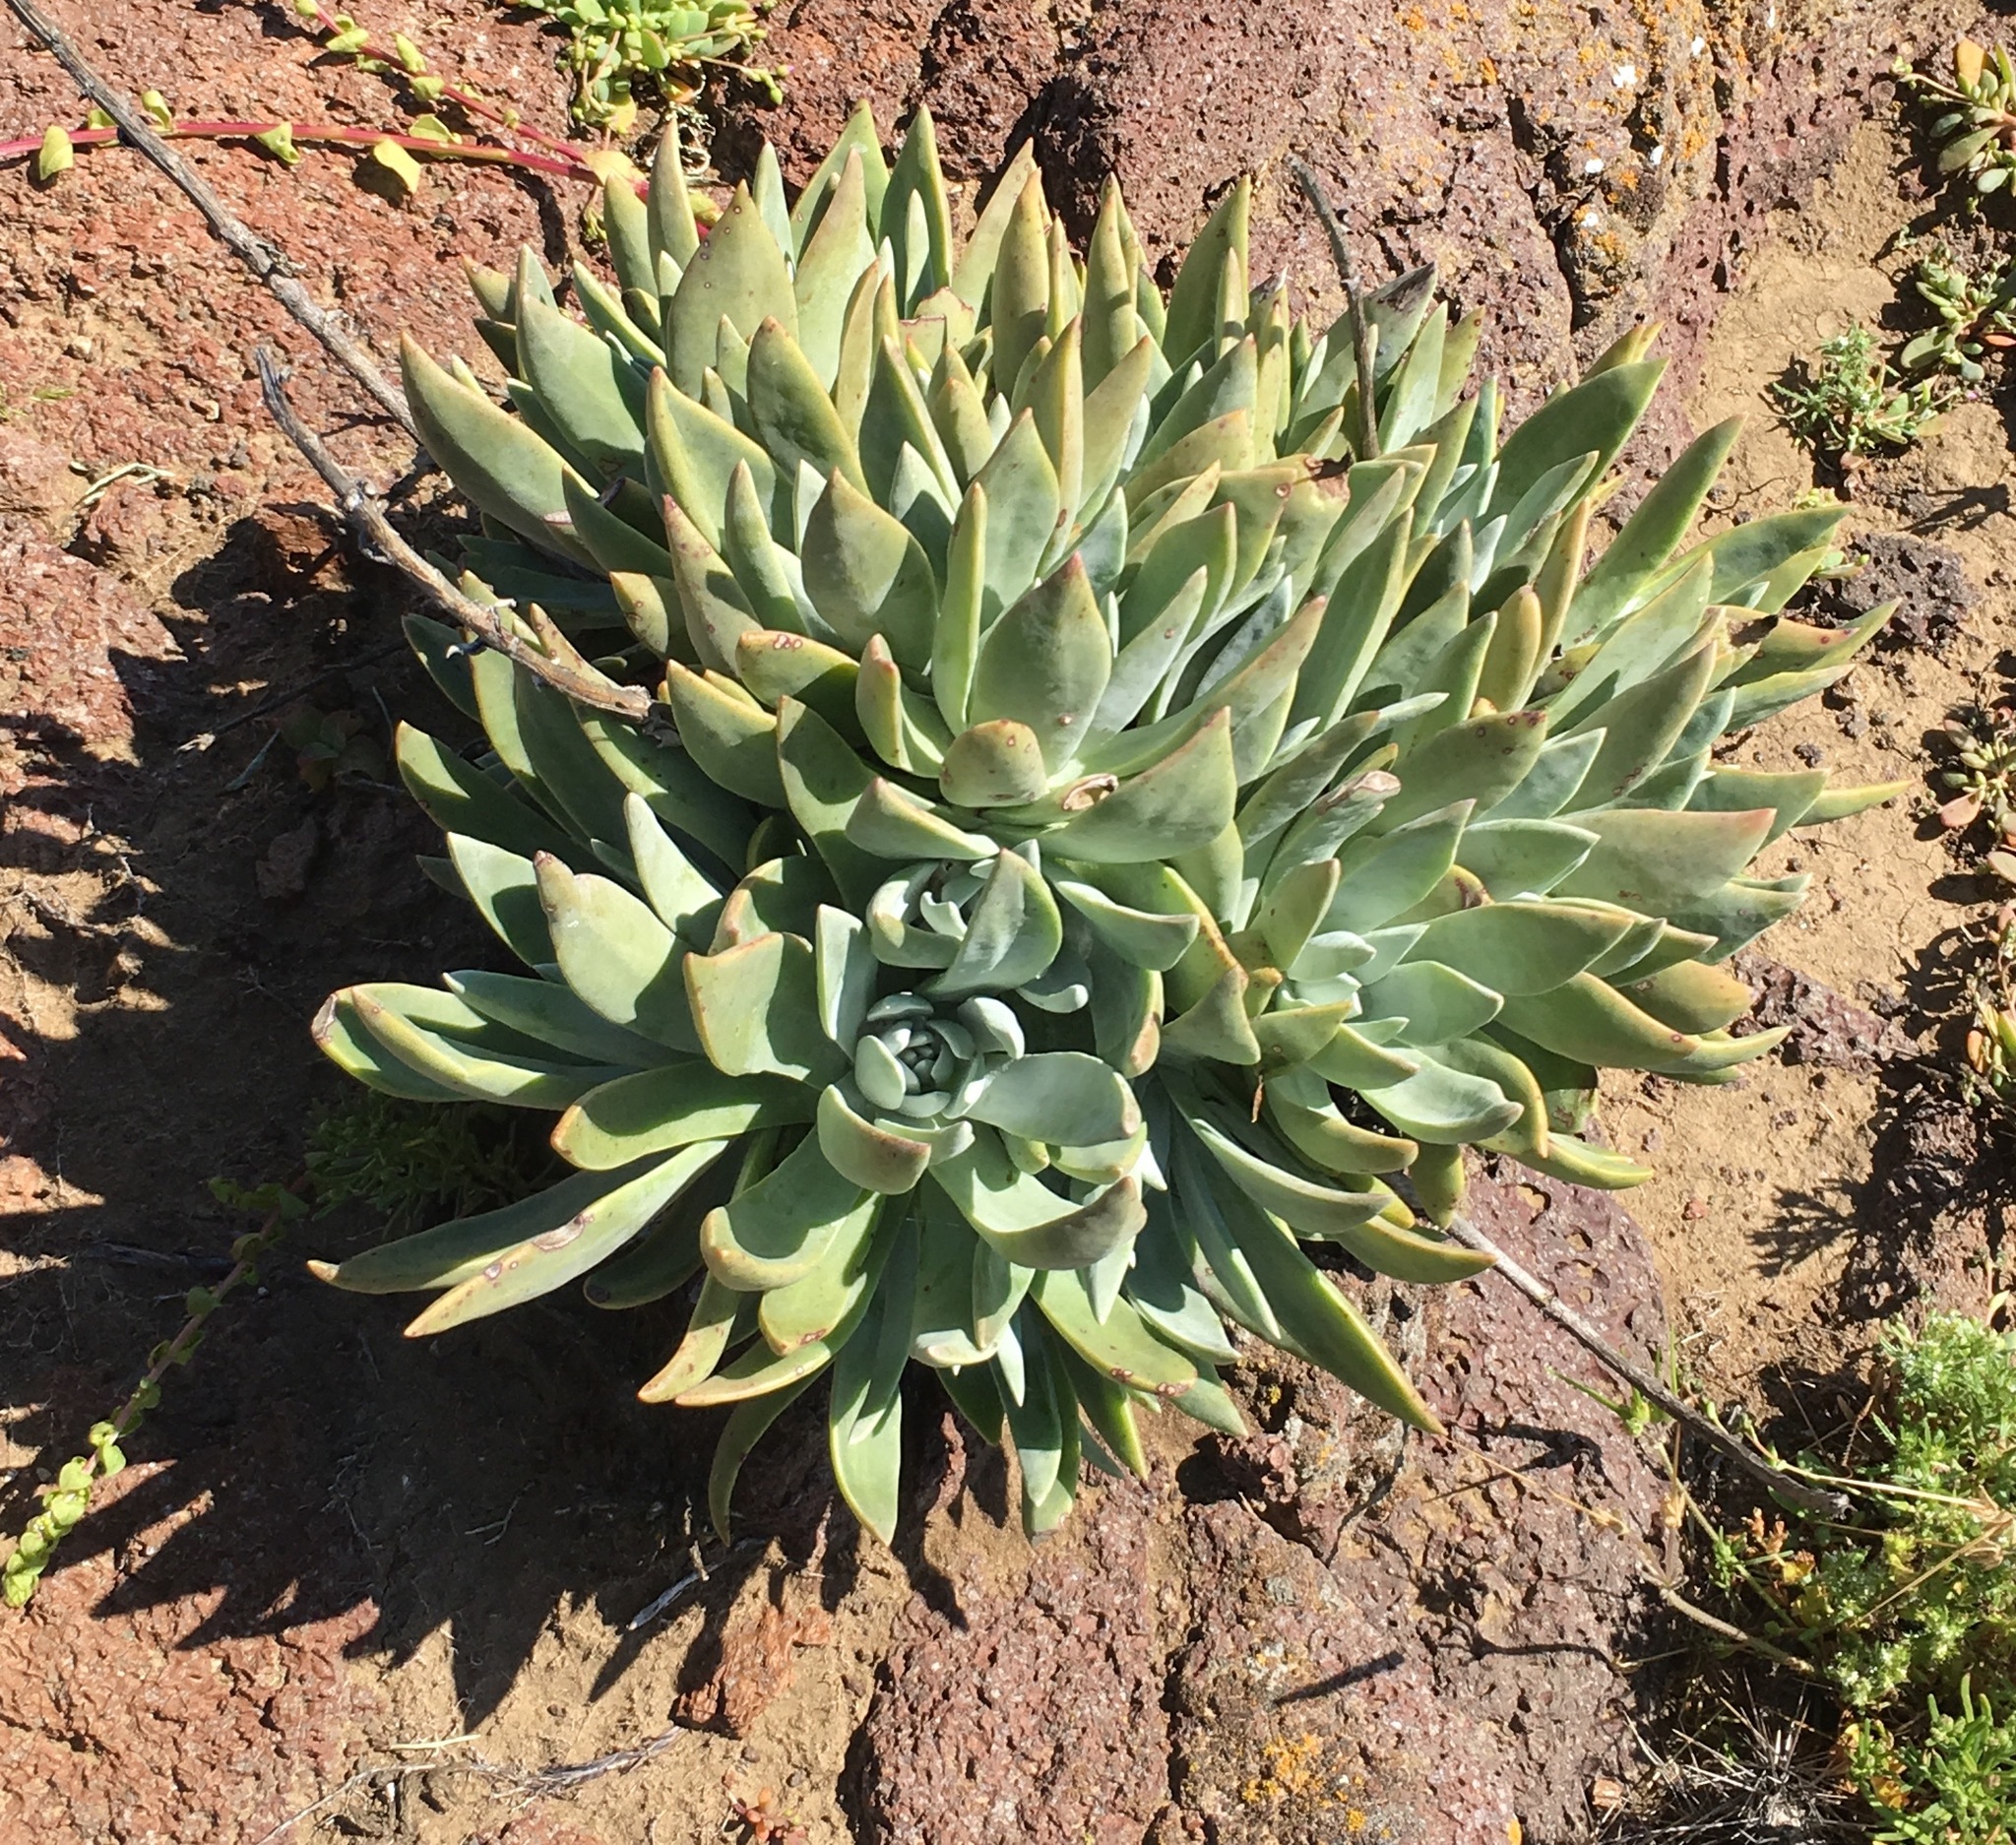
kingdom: Plantae
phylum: Tracheophyta
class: Magnoliopsida
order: Saxifragales
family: Crassulaceae
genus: Dudleya
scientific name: Dudleya traskiae
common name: Santa barbara island dudleya
